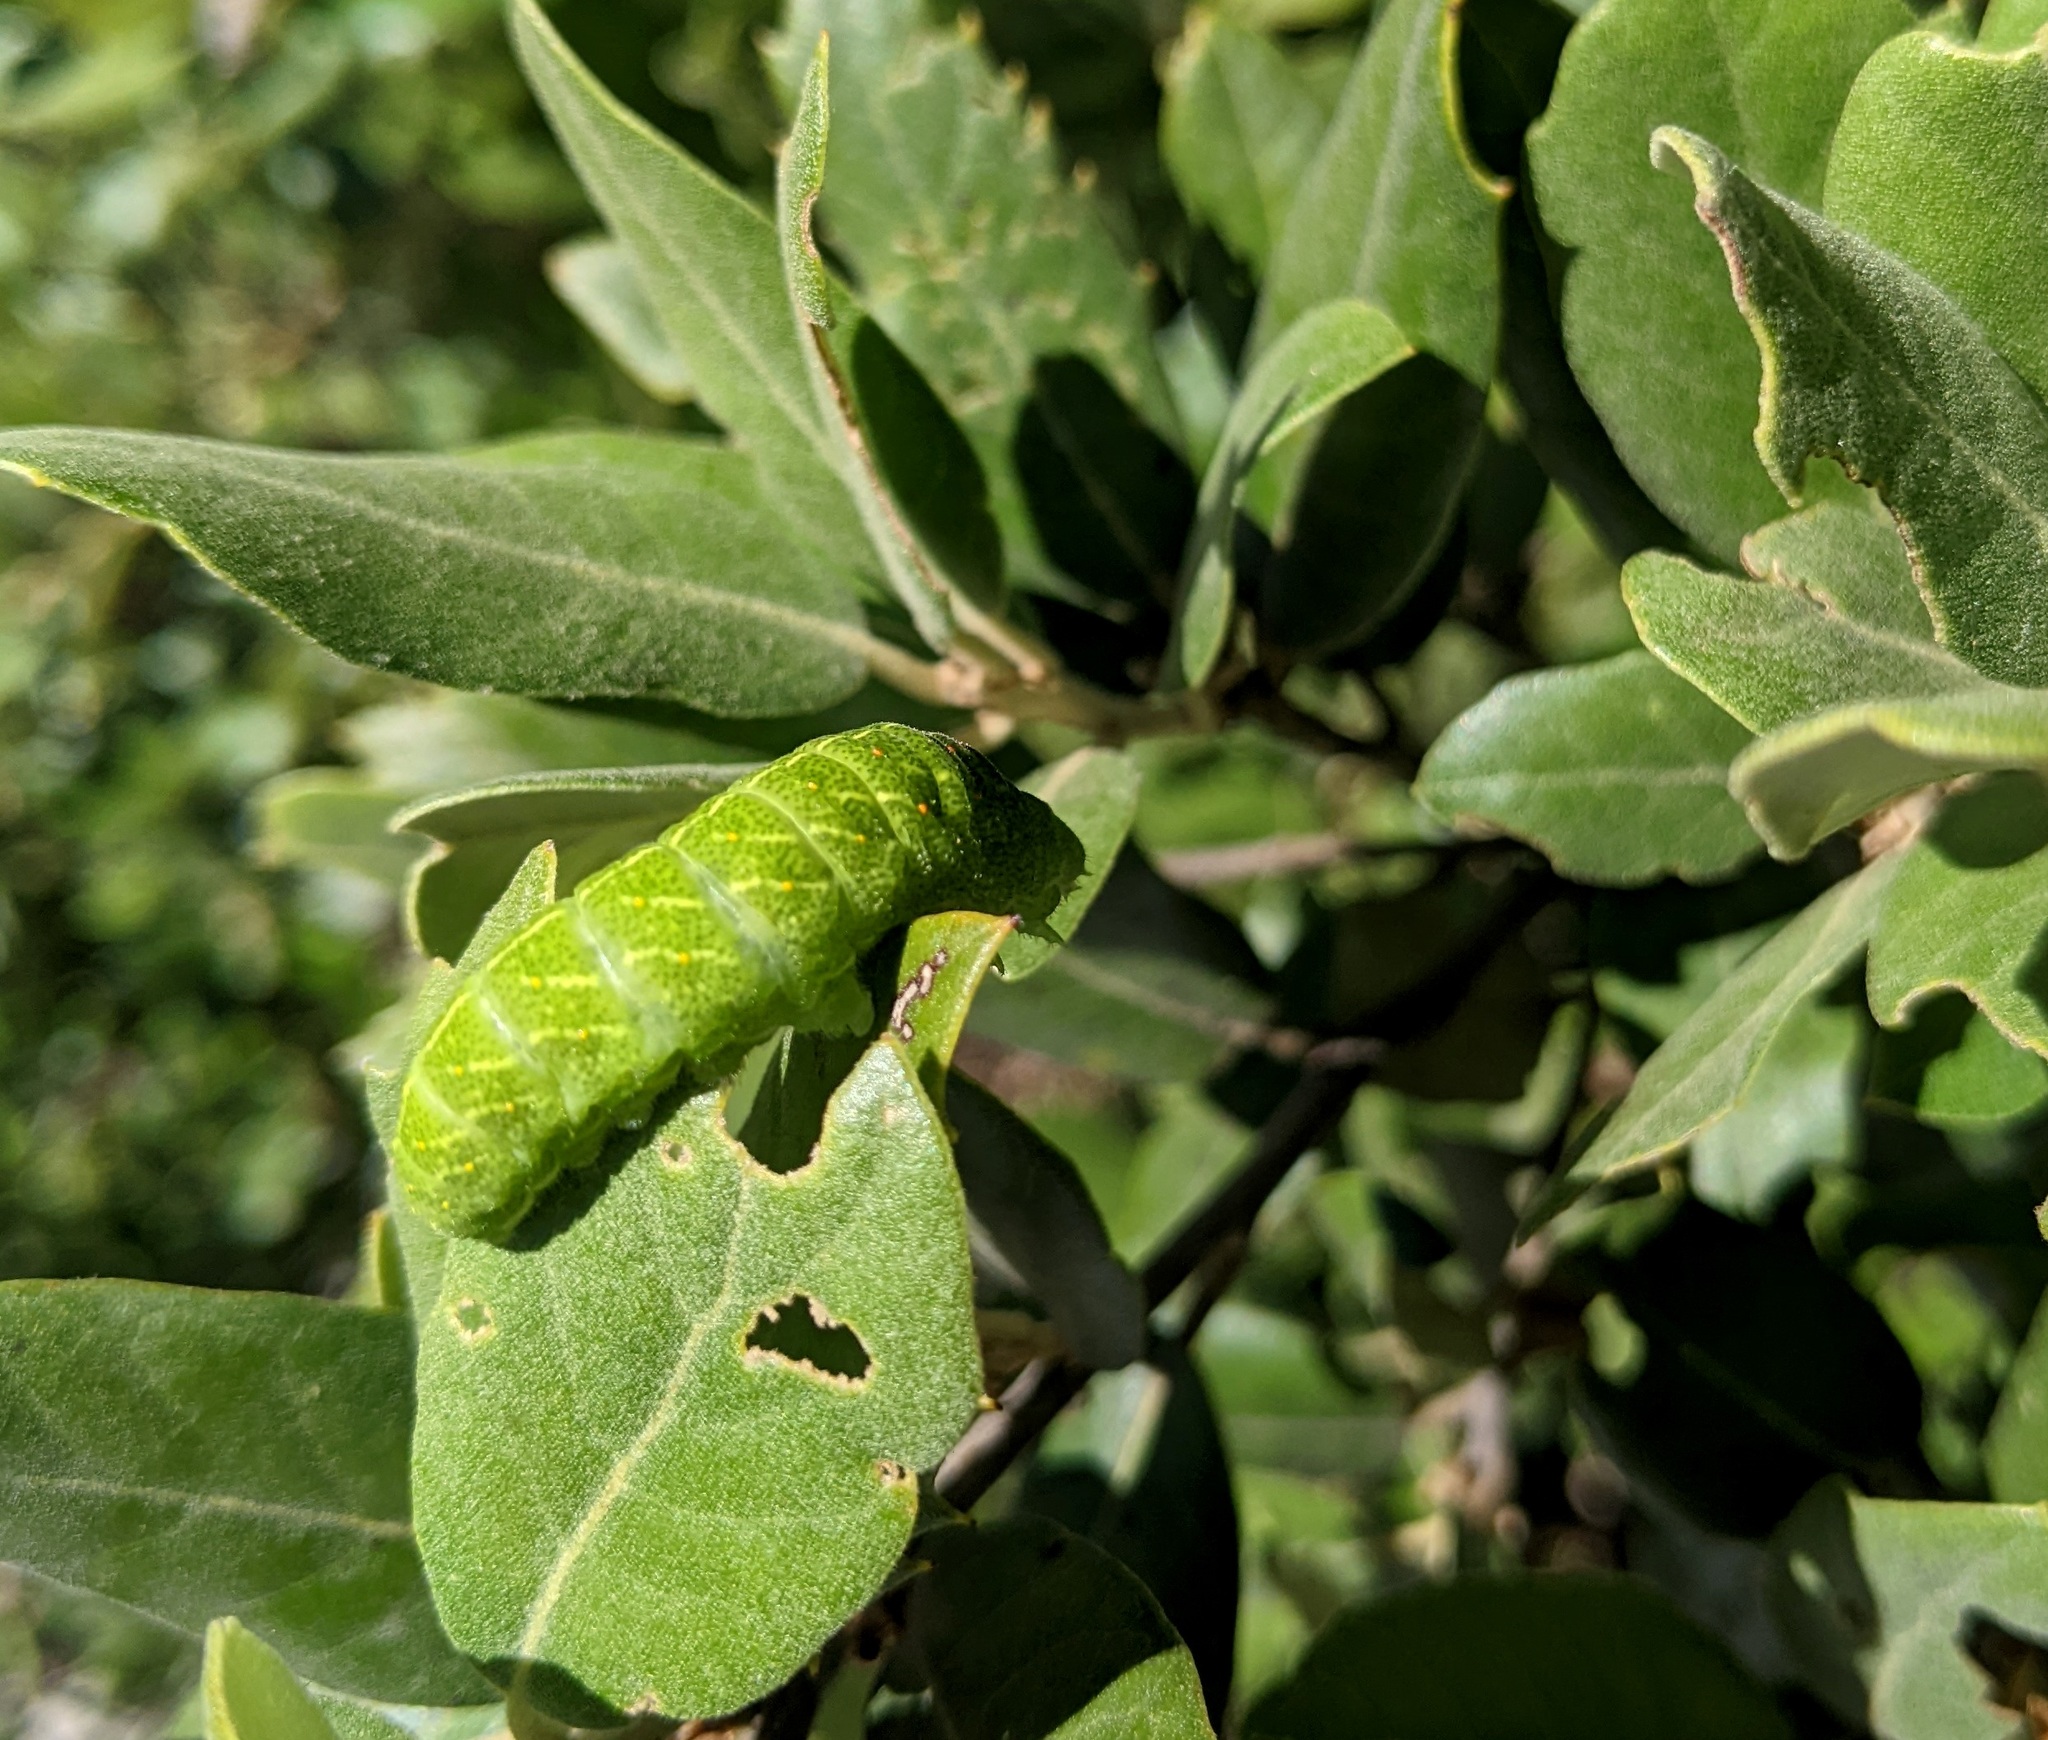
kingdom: Animalia
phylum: Arthropoda
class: Insecta
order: Lepidoptera
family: Papilionidae
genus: Iphiclides
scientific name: Iphiclides podalirius
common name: Scarce swallowtail
